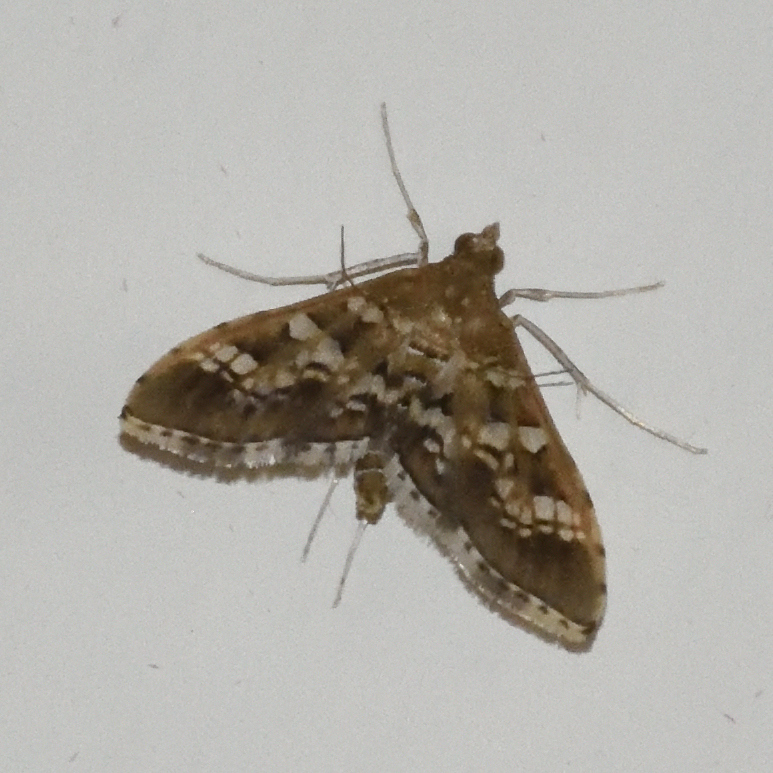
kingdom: Animalia
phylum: Arthropoda
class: Insecta
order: Lepidoptera
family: Crambidae
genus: Sameodes
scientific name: Sameodes cancellalis
